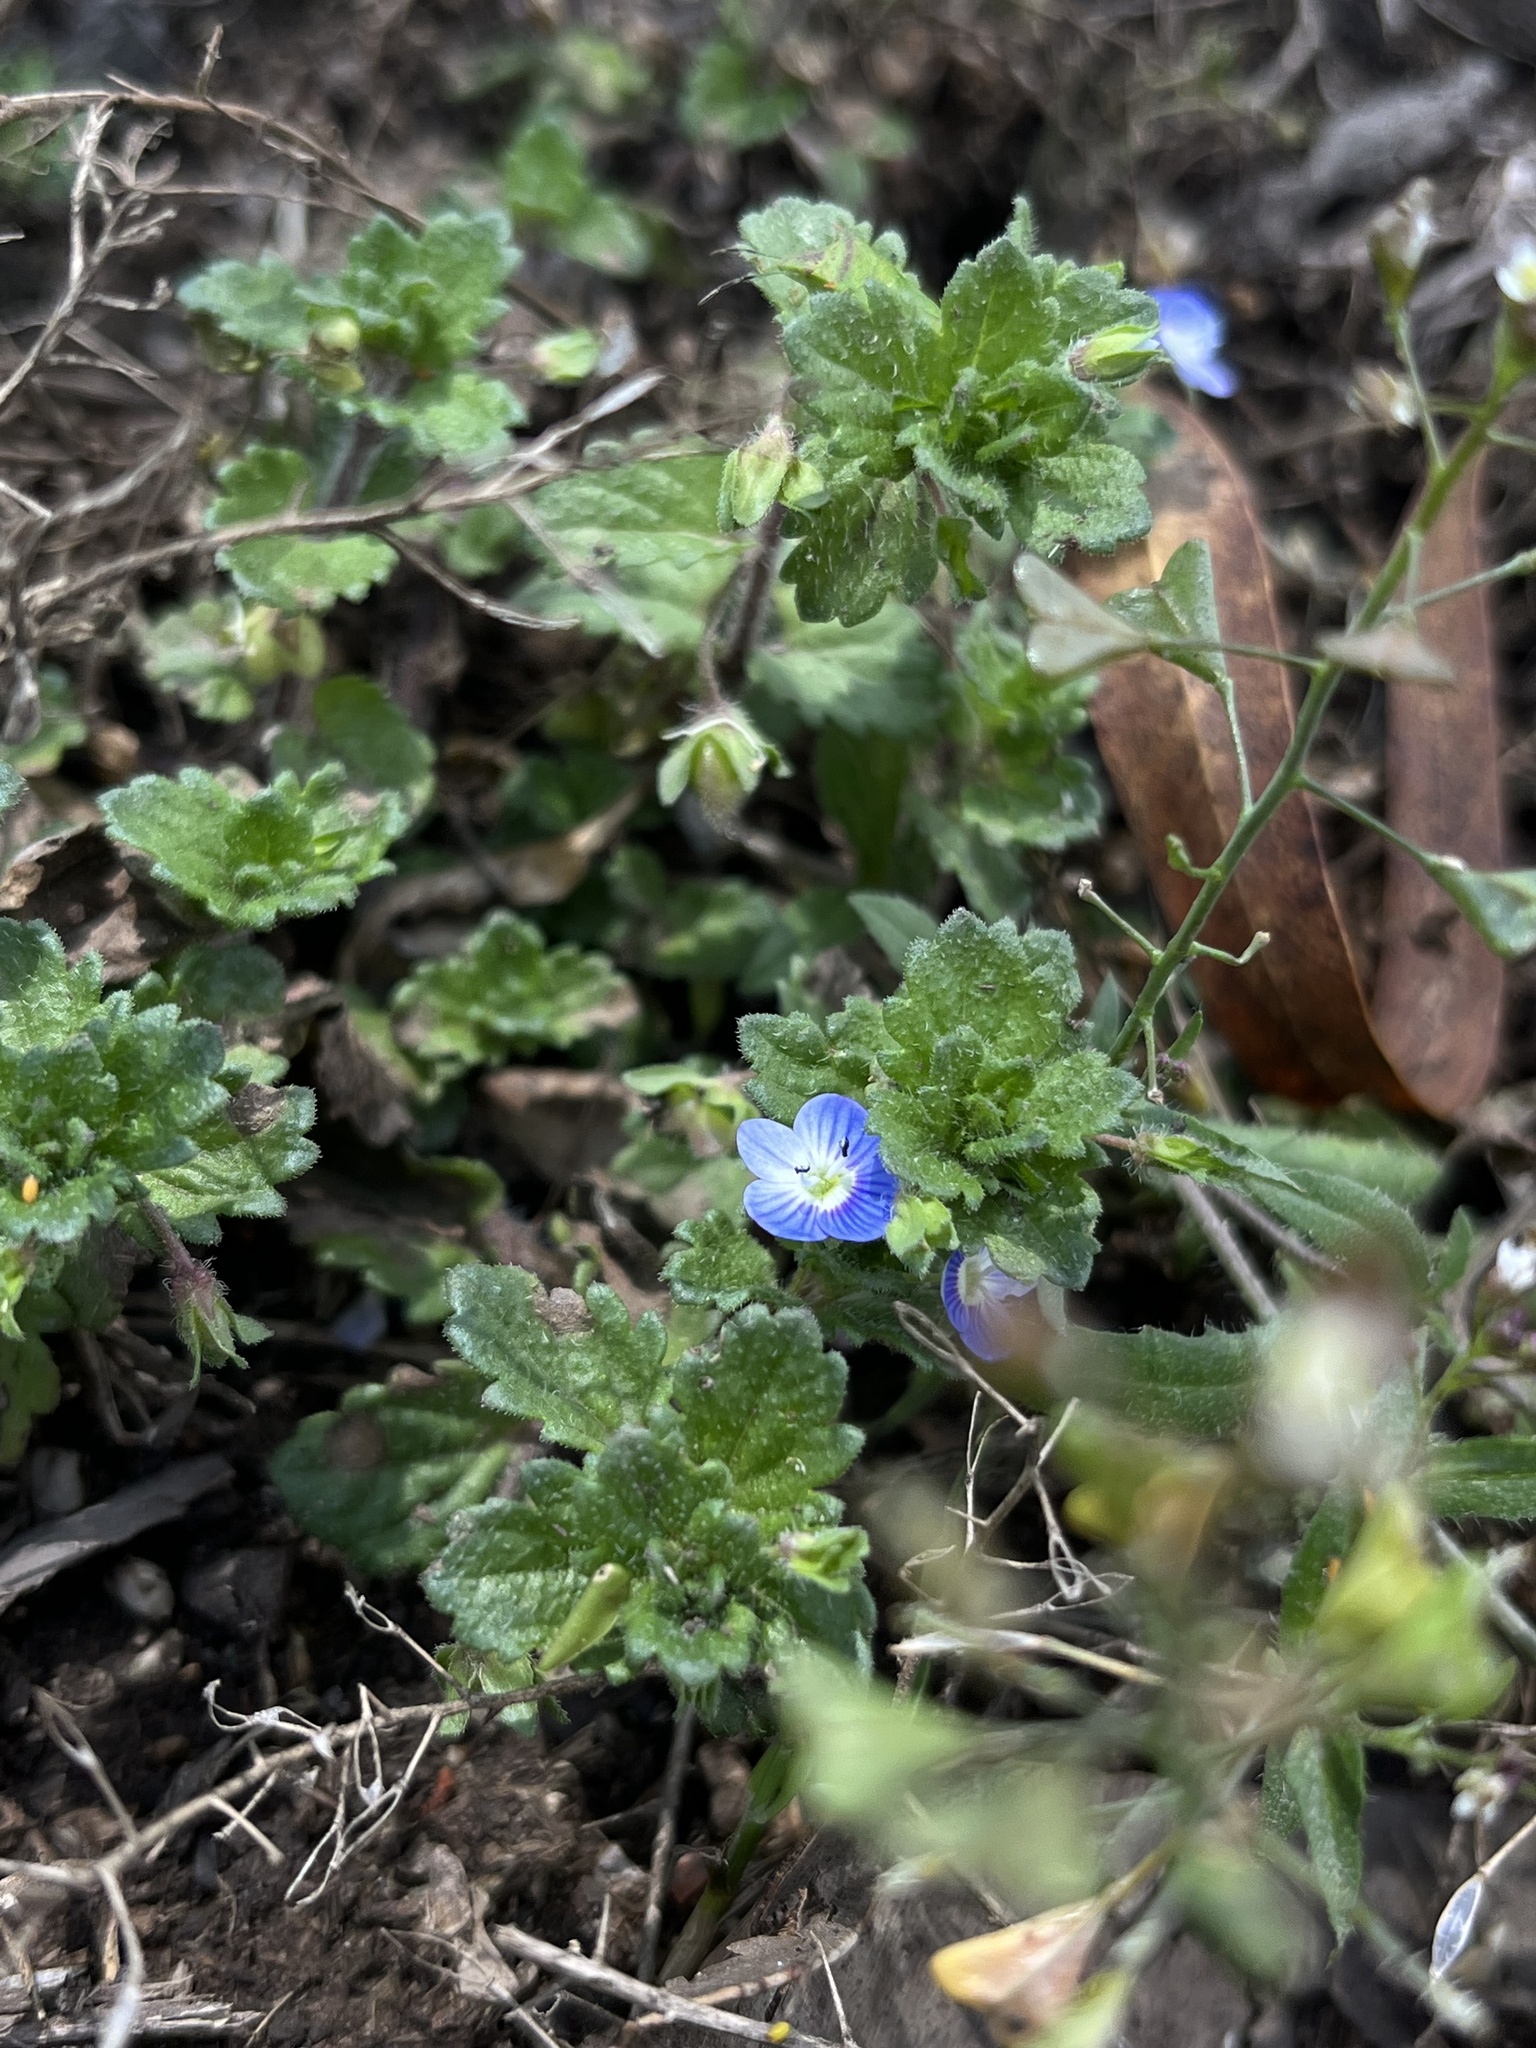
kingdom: Plantae
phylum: Tracheophyta
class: Magnoliopsida
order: Lamiales
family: Plantaginaceae
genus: Veronica
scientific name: Veronica persica
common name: Common field-speedwell
